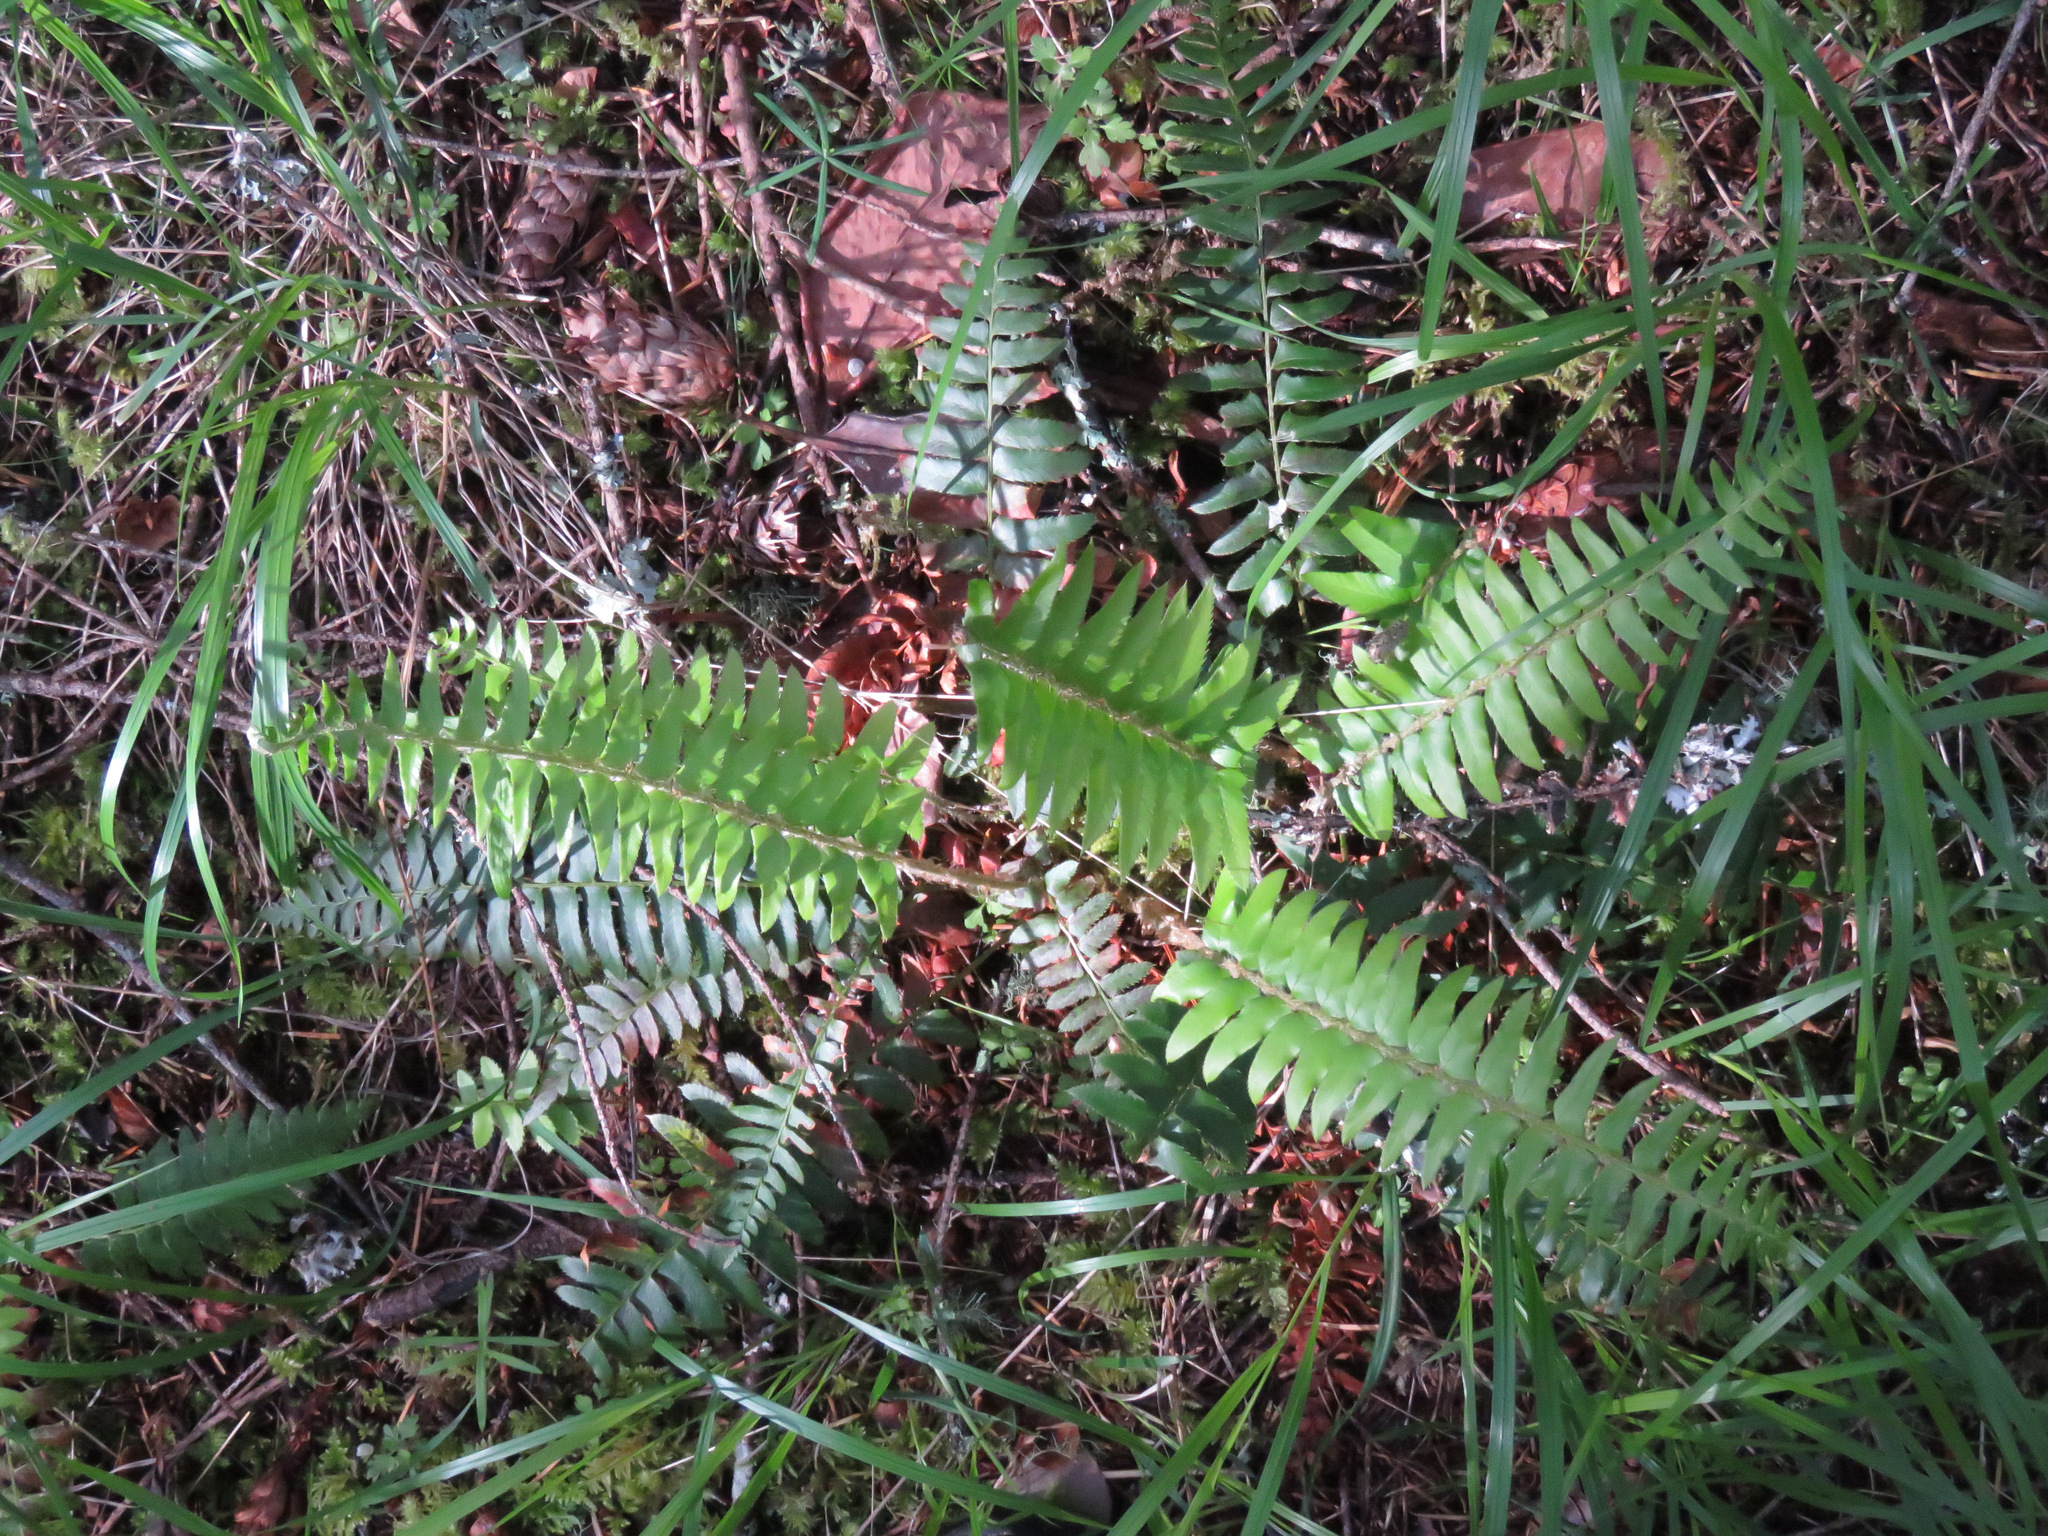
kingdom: Plantae
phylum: Tracheophyta
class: Polypodiopsida
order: Polypodiales
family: Dryopteridaceae
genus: Polystichum
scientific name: Polystichum munitum
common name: Western sword-fern
